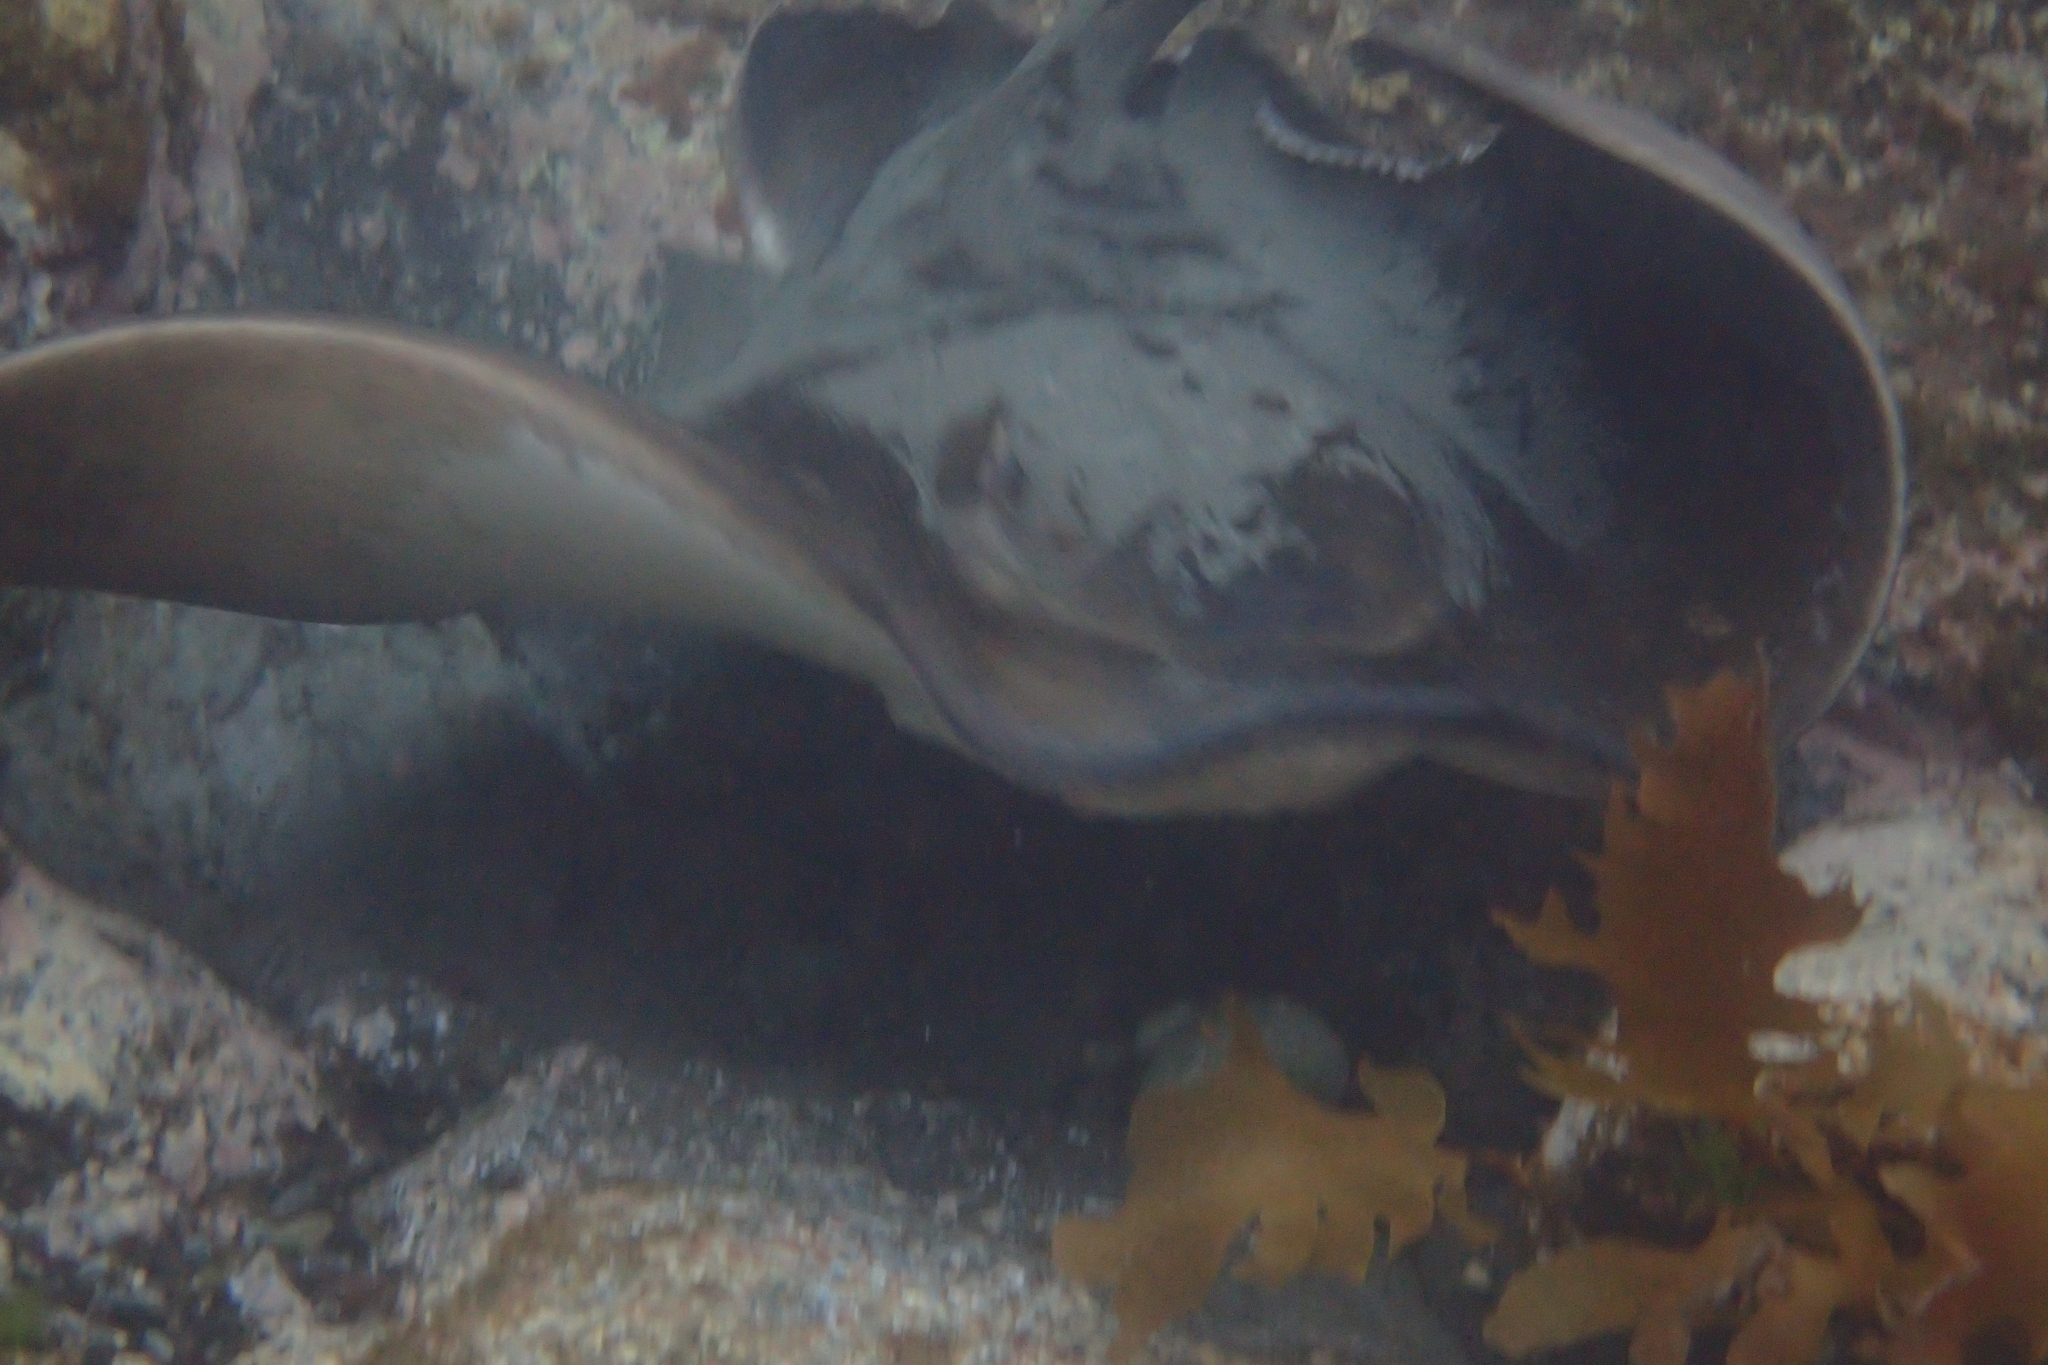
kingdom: Animalia
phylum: Chordata
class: Elasmobranchii
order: Myliobatiformes
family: Myliobatidae
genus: Myliobatis
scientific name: Myliobatis tenuicaudatus
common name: Eagle ray
